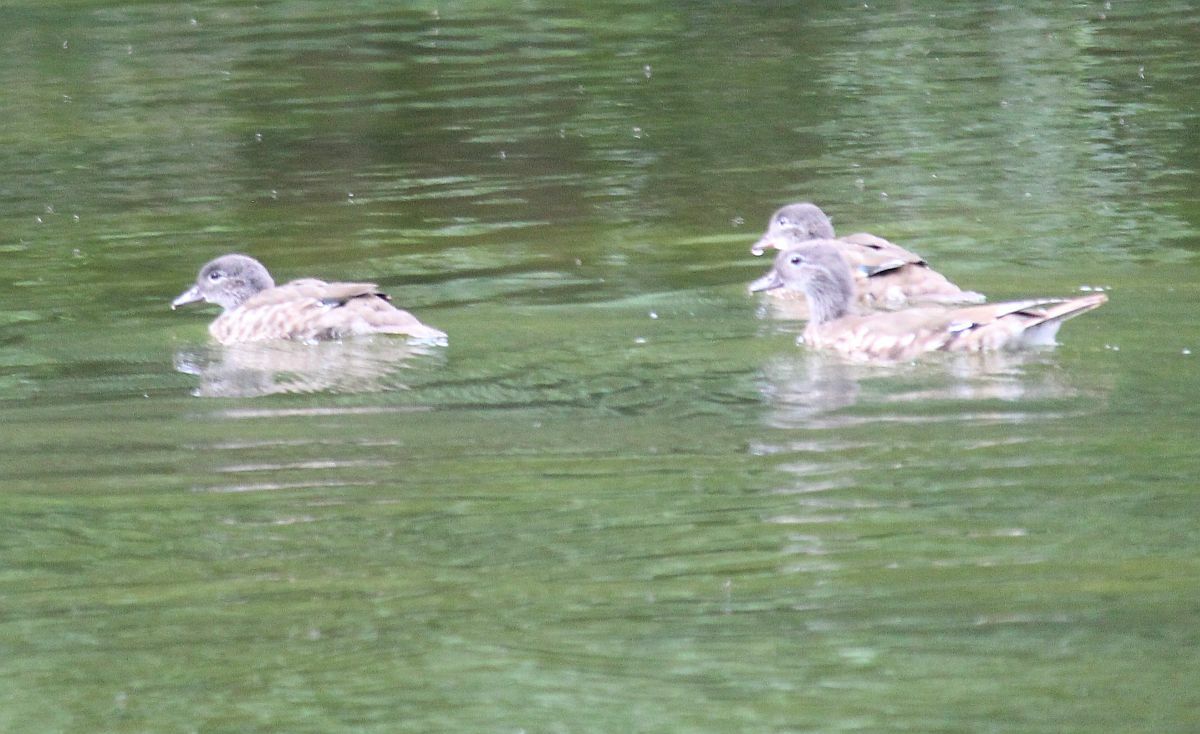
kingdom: Animalia
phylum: Chordata
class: Aves
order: Anseriformes
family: Anatidae
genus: Aix
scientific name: Aix galericulata
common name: Mandarin duck
